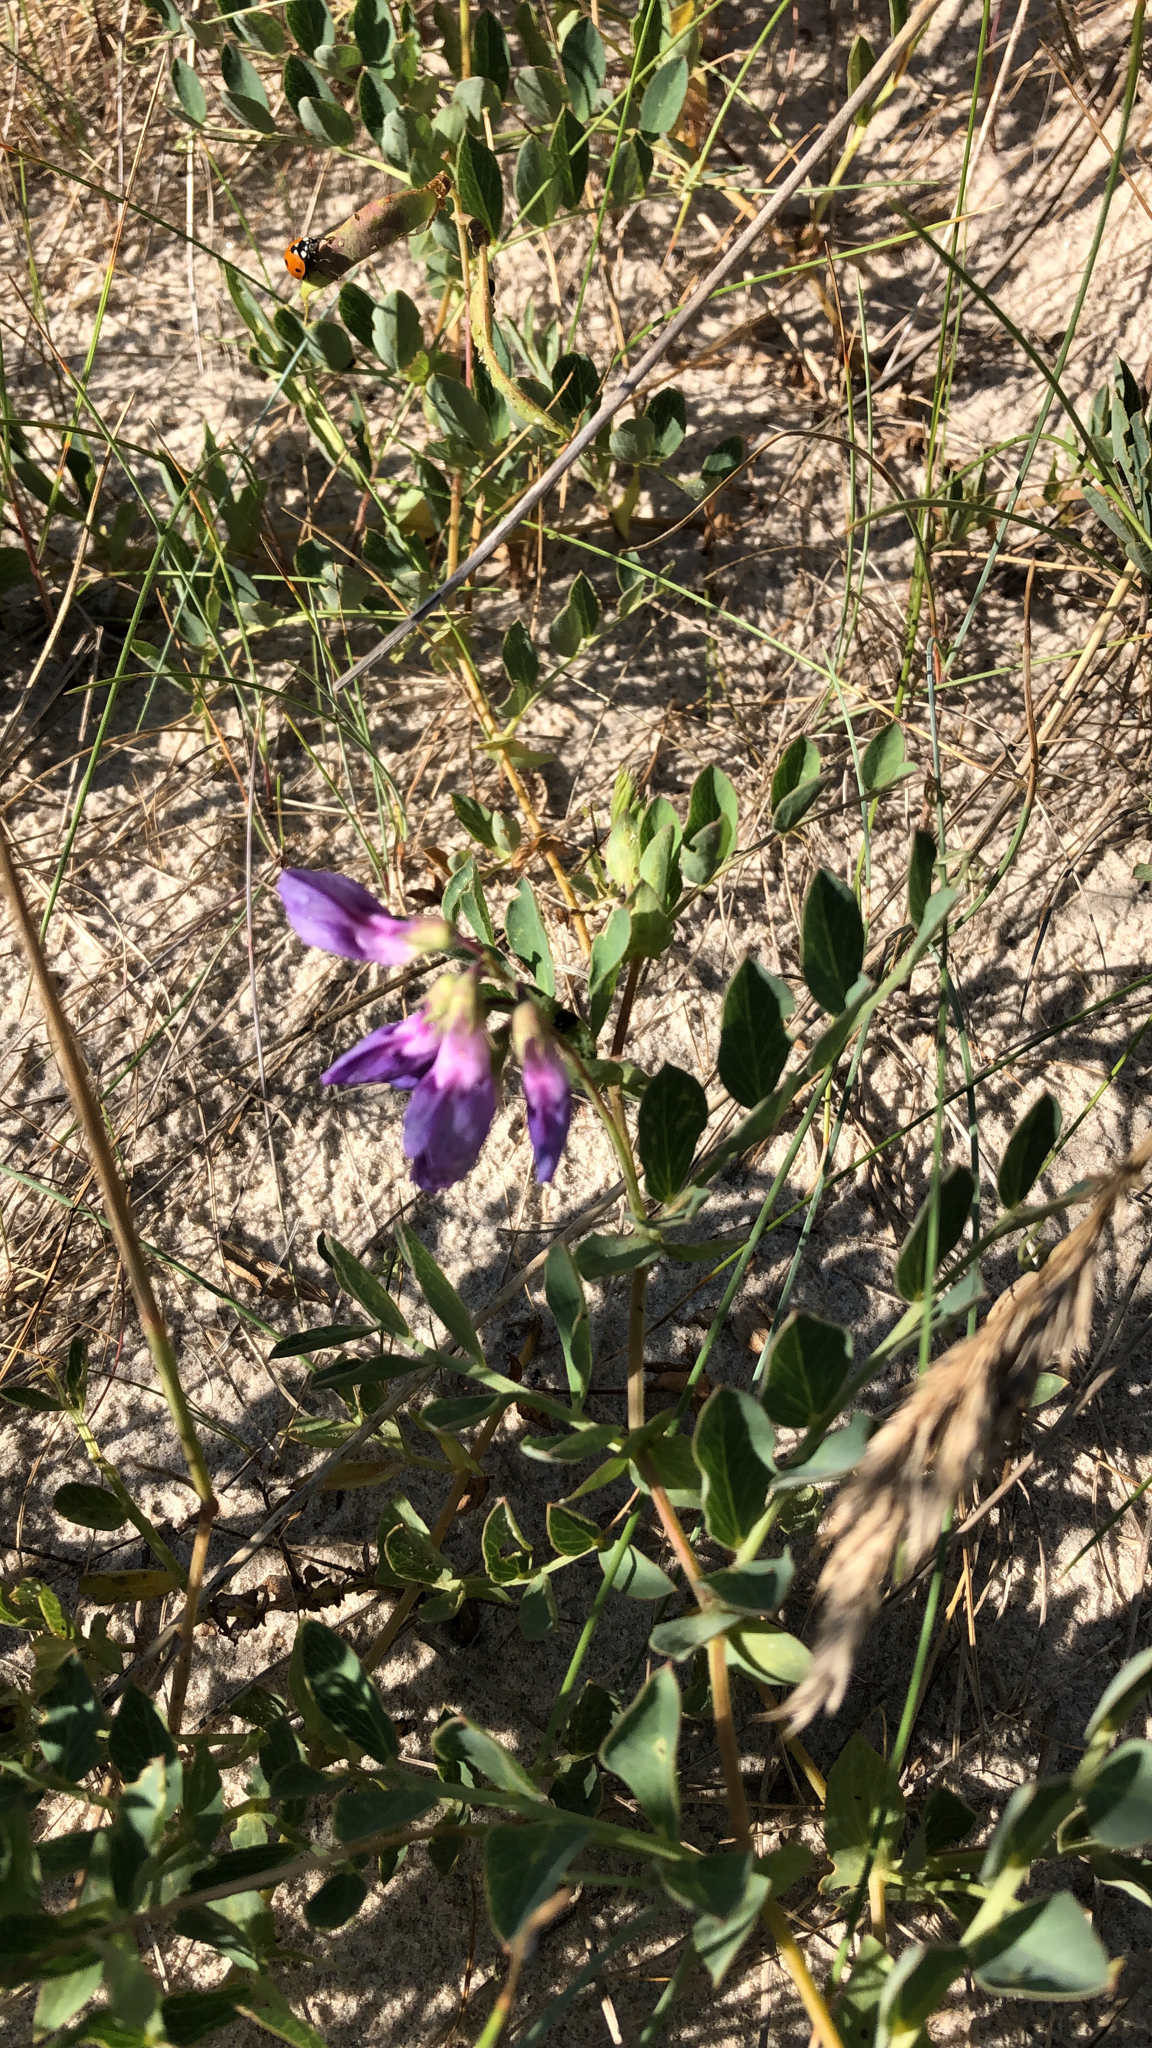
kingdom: Plantae
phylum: Tracheophyta
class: Magnoliopsida
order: Fabales
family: Fabaceae
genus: Lathyrus
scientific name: Lathyrus japonicus
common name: Sea pea
